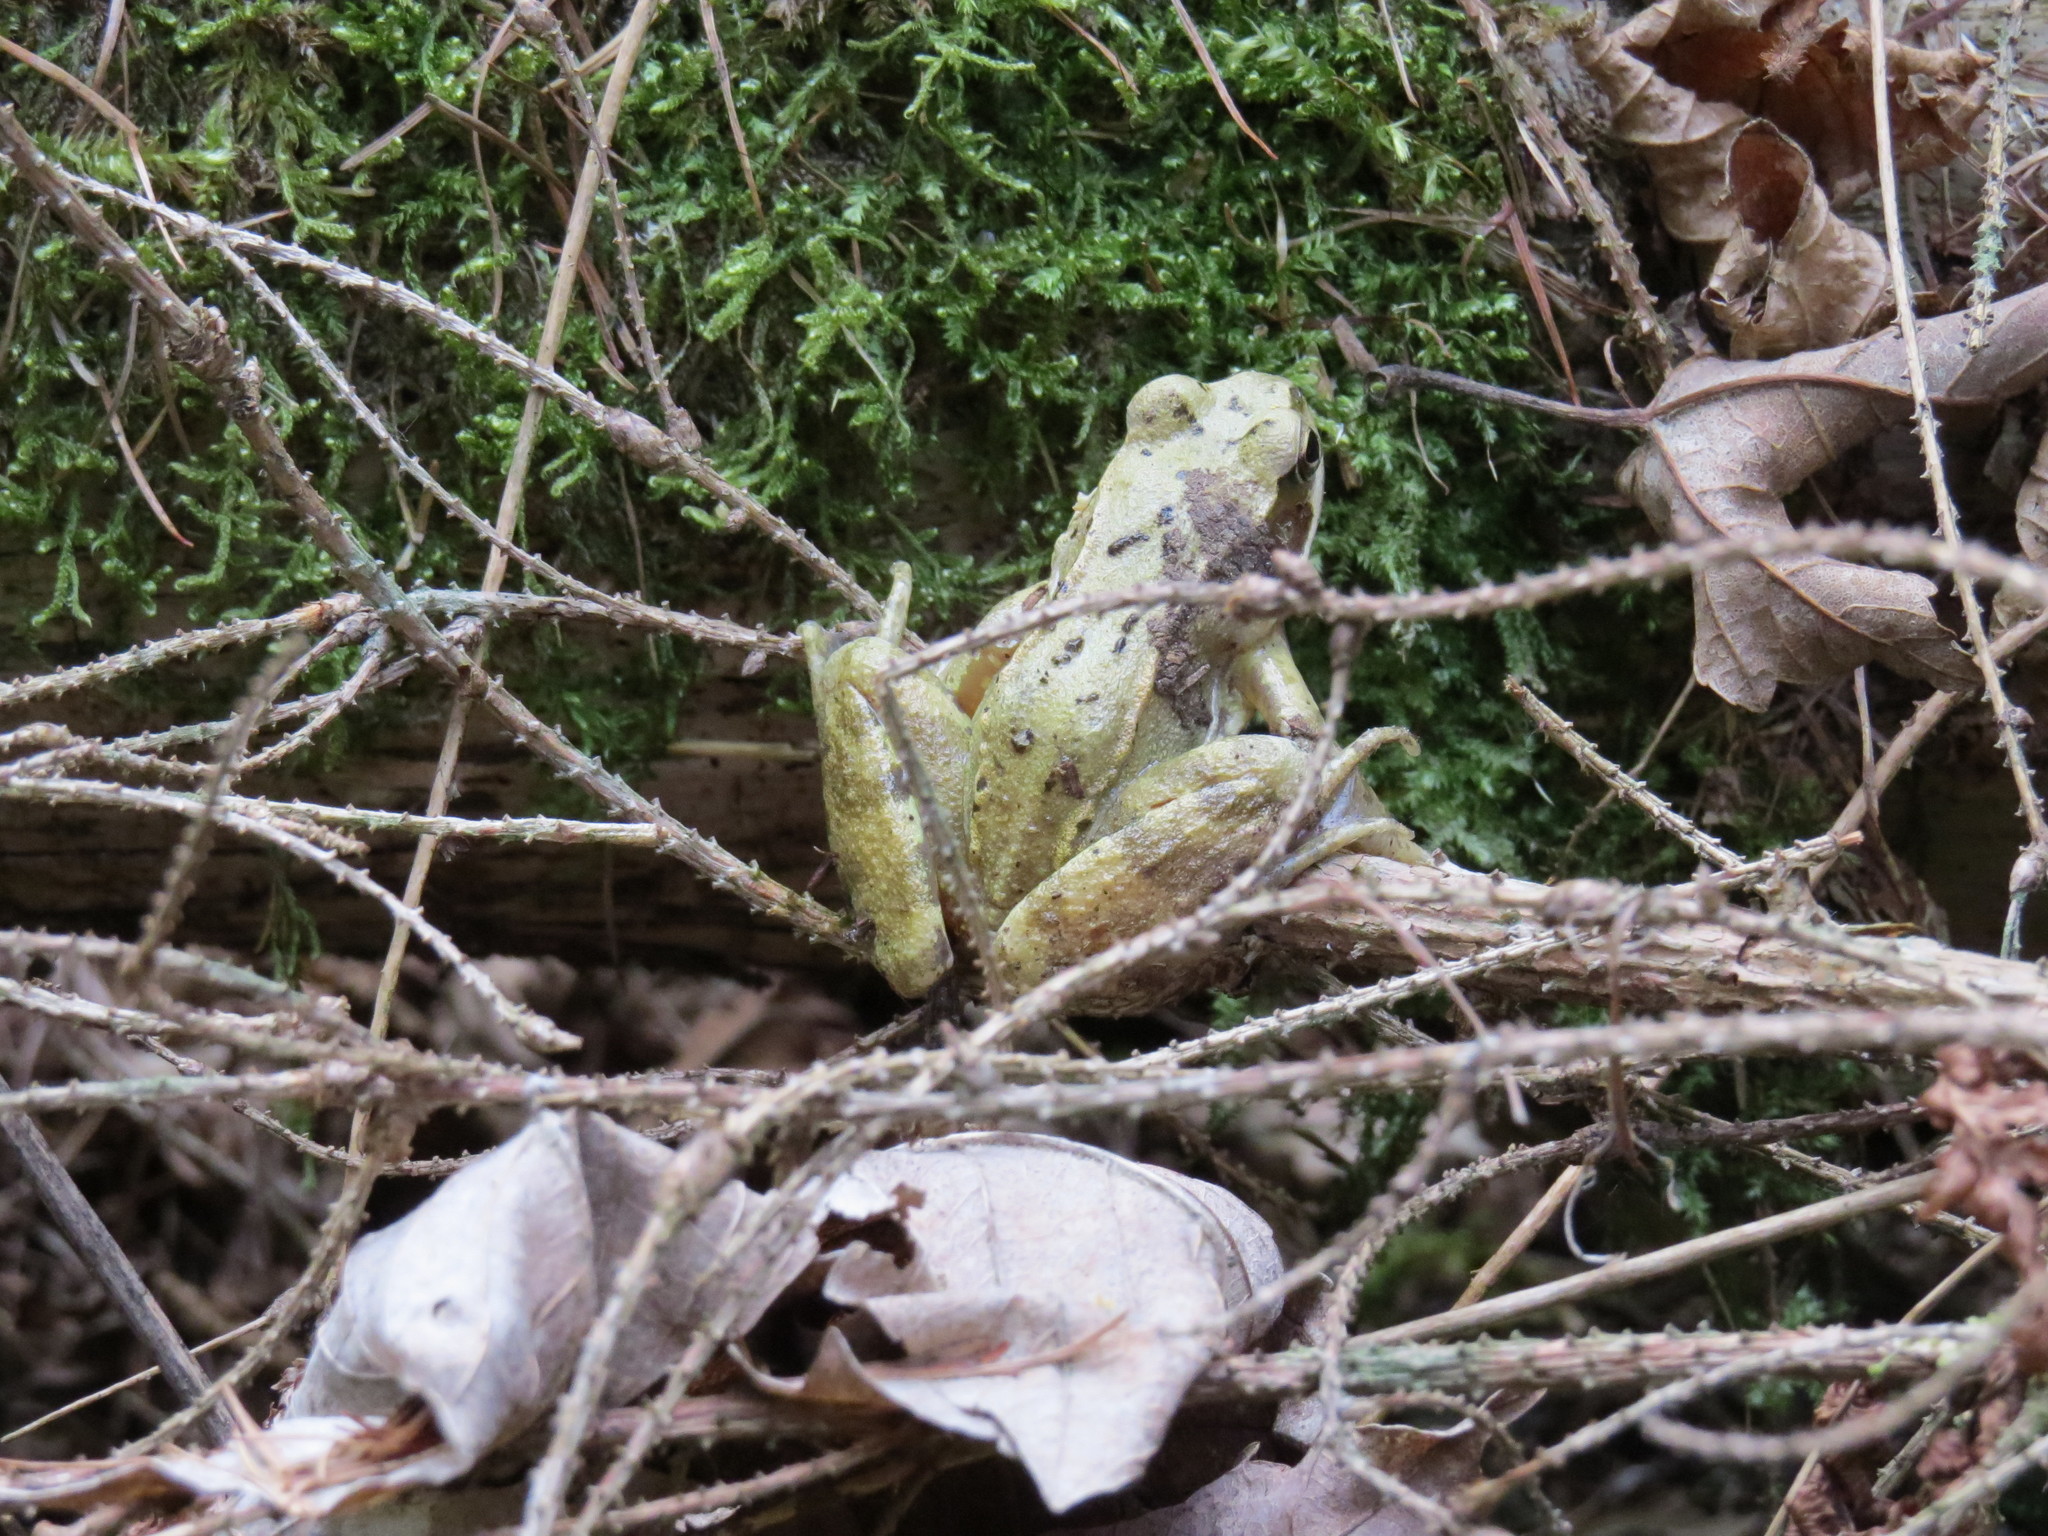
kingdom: Animalia
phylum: Chordata
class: Amphibia
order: Anura
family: Ranidae
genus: Rana
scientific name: Rana temporaria
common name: Common frog
